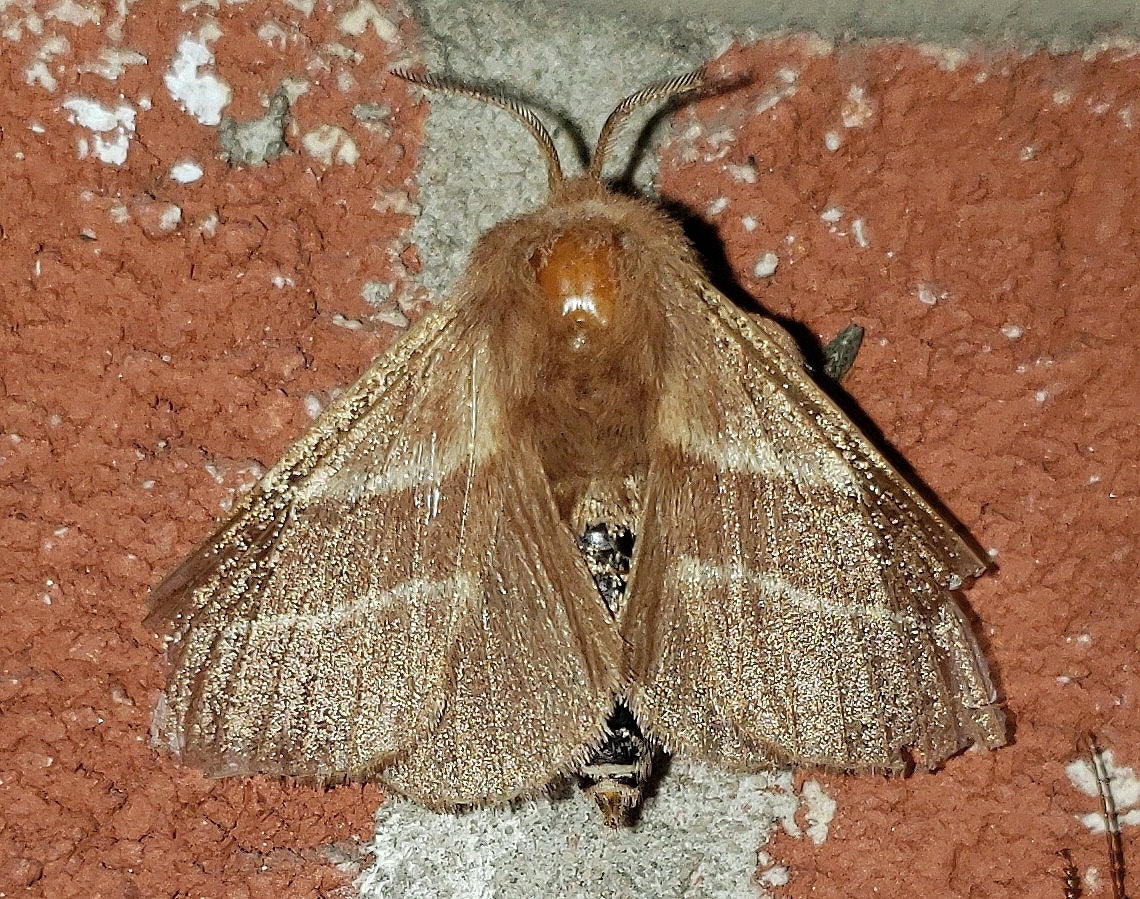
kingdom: Animalia
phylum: Arthropoda
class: Insecta
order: Lepidoptera
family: Lasiocampidae
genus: Malacosoma
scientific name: Malacosoma americana
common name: Eastern tent caterpillar moth
